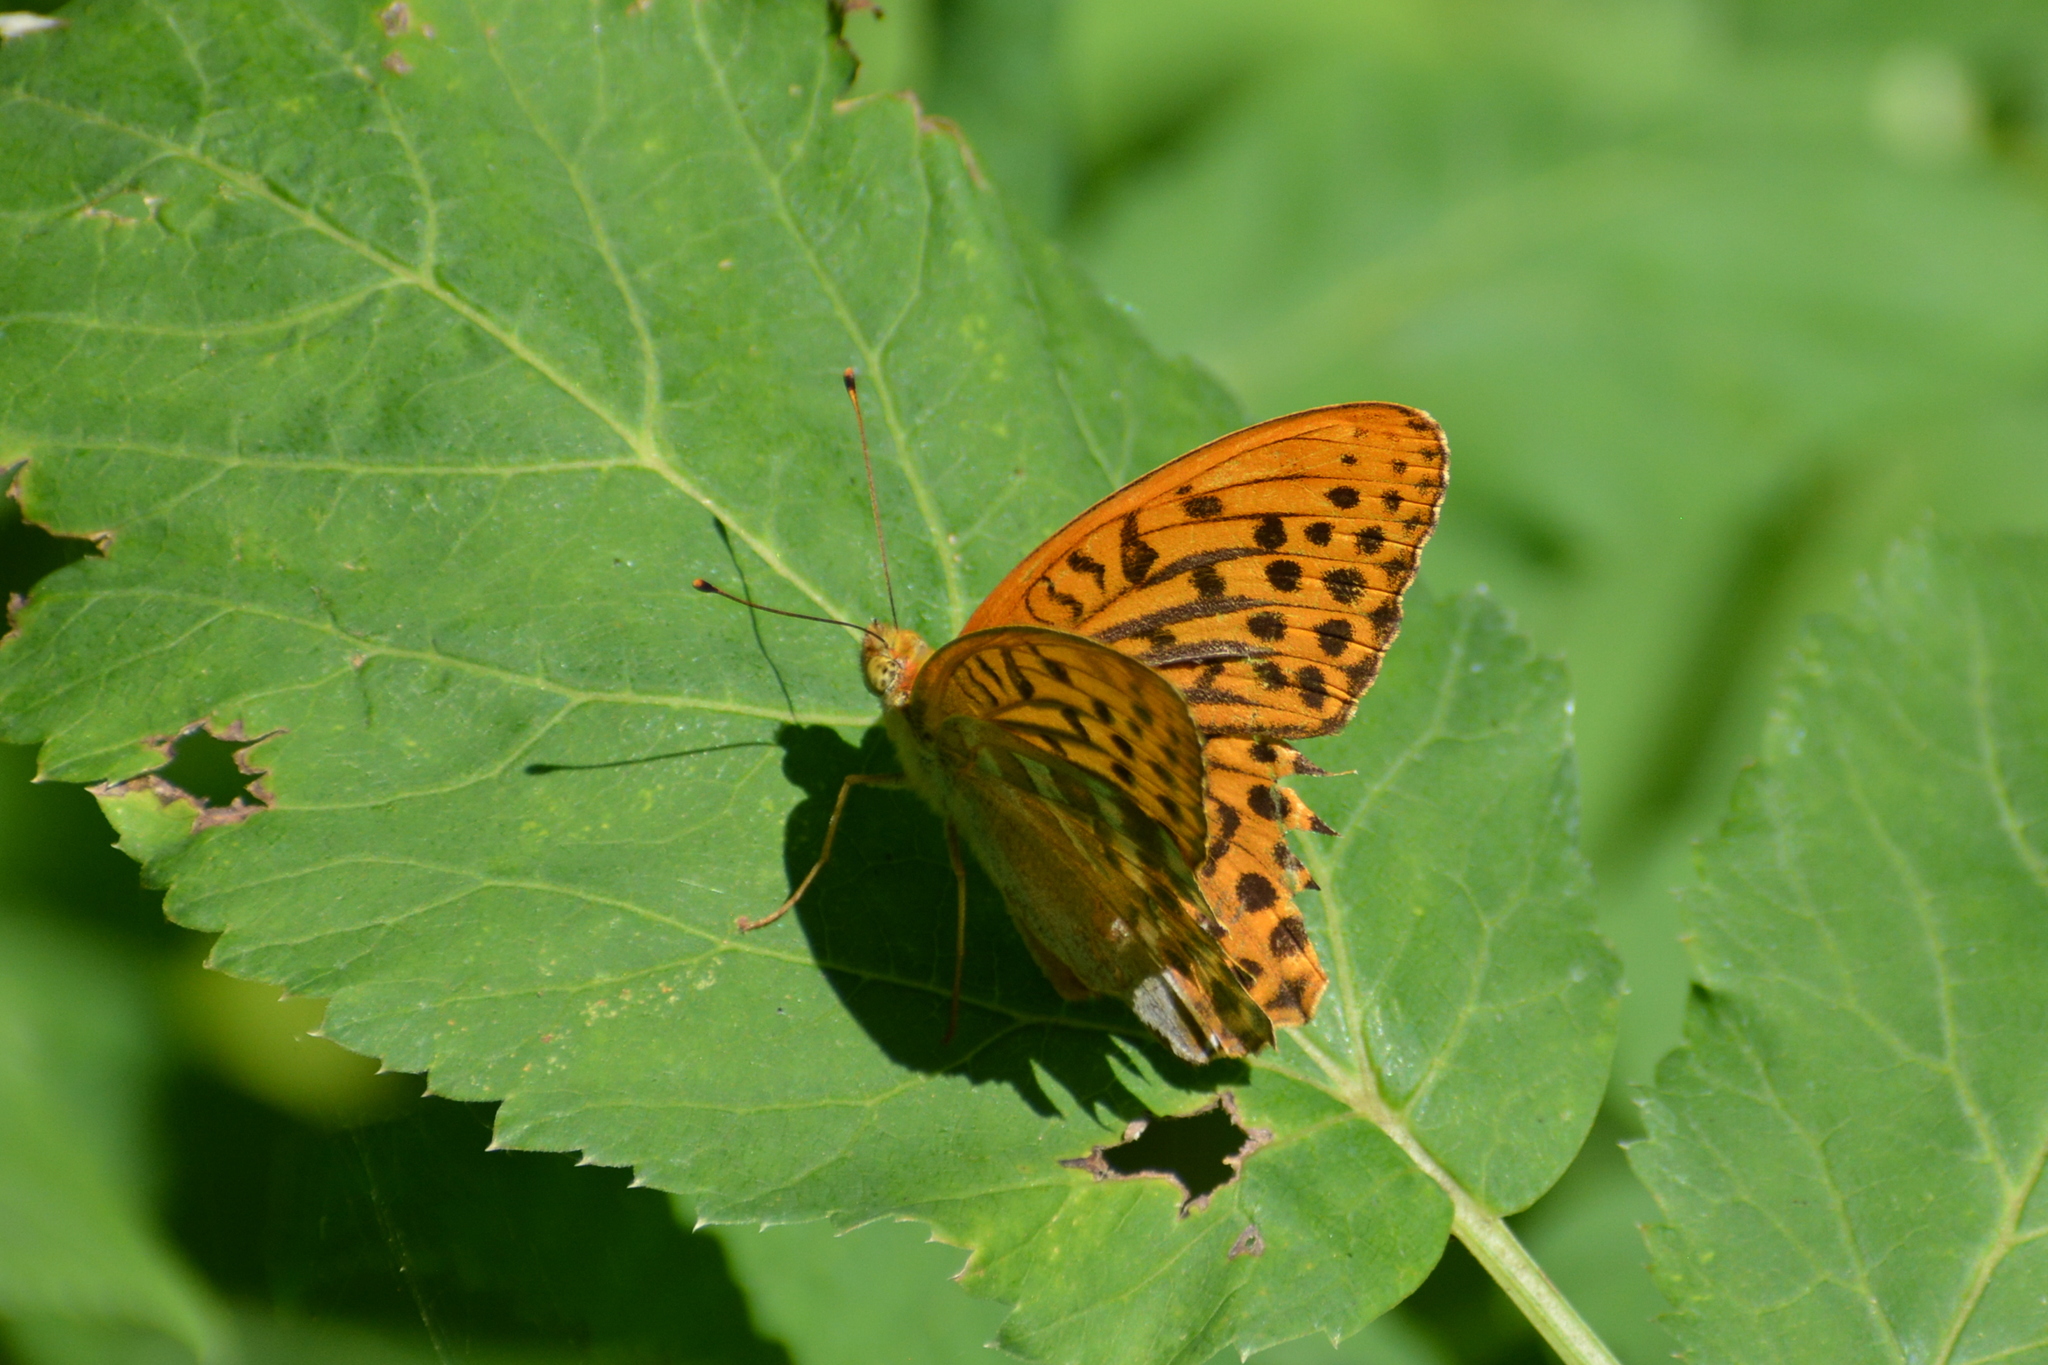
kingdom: Animalia
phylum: Arthropoda
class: Insecta
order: Lepidoptera
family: Nymphalidae
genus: Argynnis
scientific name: Argynnis paphia
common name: Silver-washed fritillary
